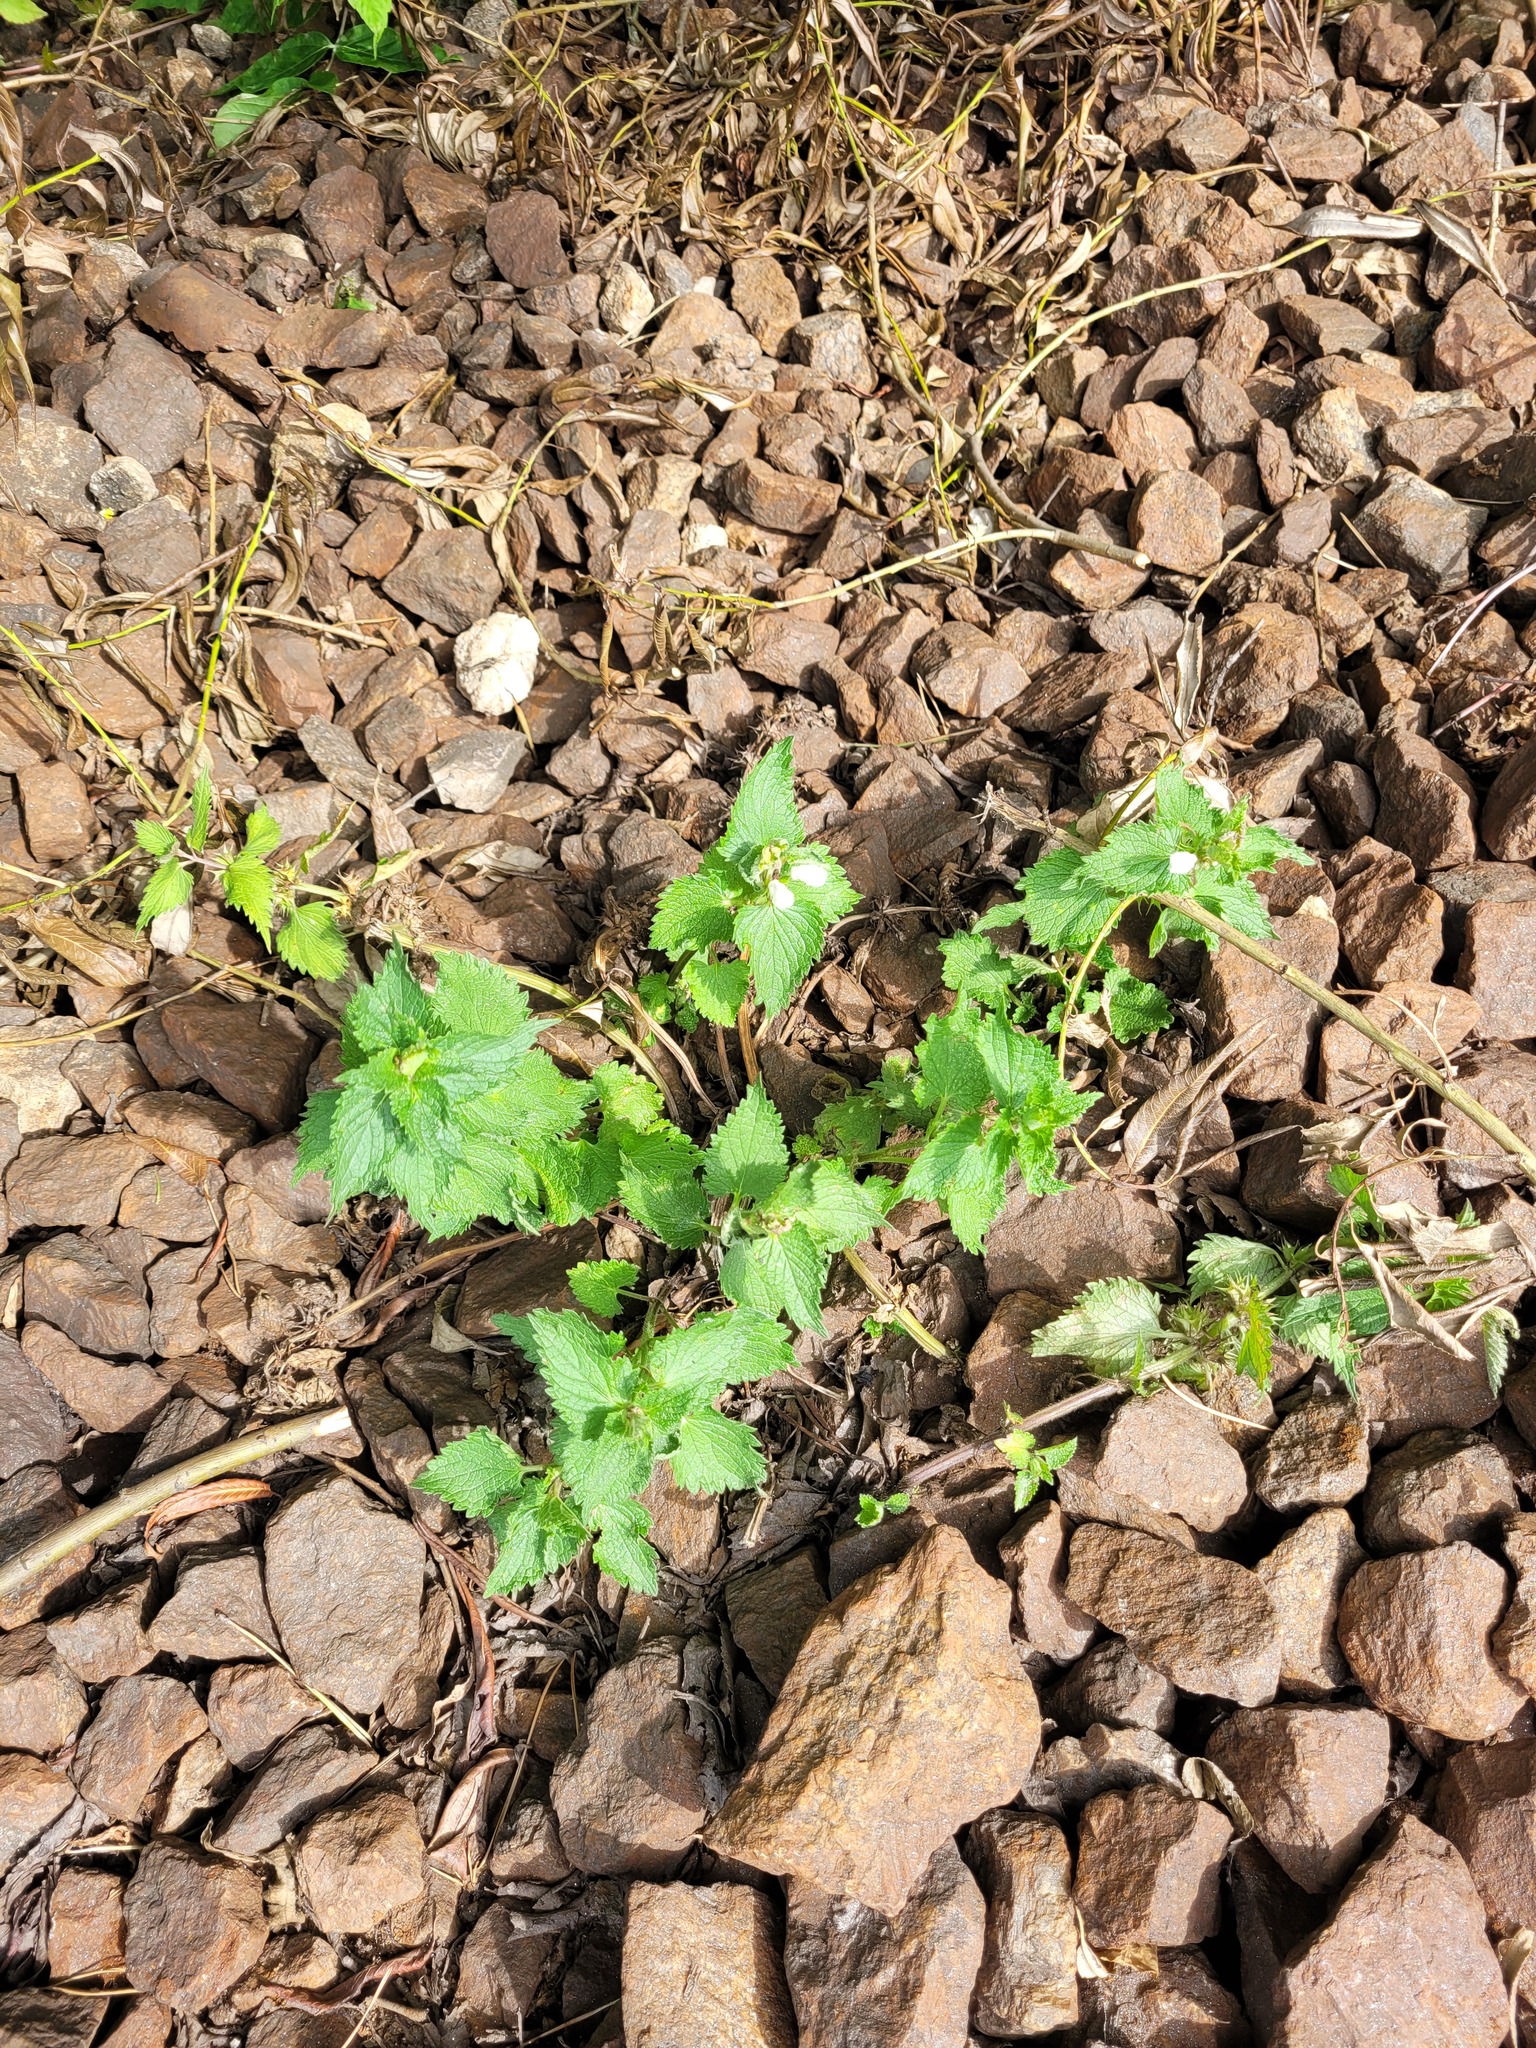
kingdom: Plantae
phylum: Tracheophyta
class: Magnoliopsida
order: Lamiales
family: Lamiaceae
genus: Lamium
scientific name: Lamium album
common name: White dead-nettle
